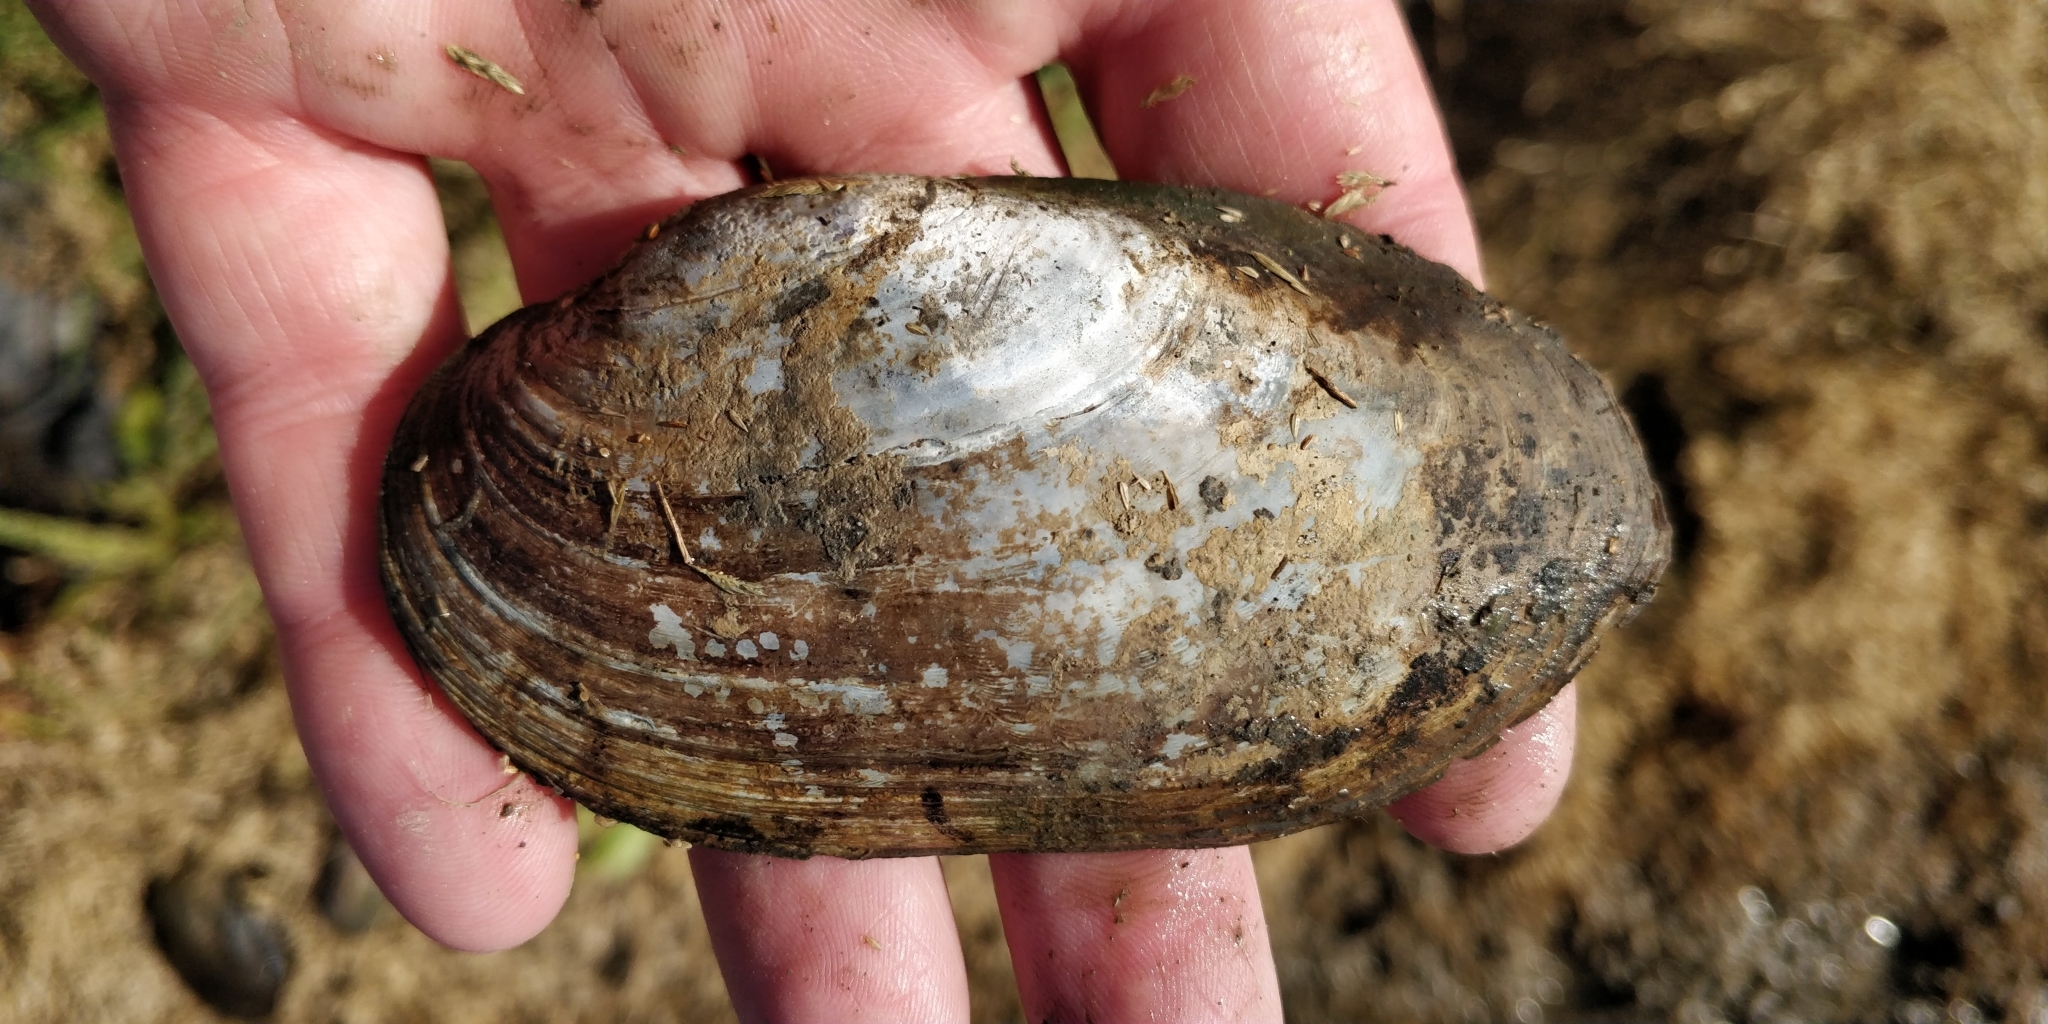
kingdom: Animalia
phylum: Mollusca
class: Bivalvia
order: Unionida
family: Unionidae
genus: Lampsilis
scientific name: Lampsilis siliquoidea
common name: Fatmucket
